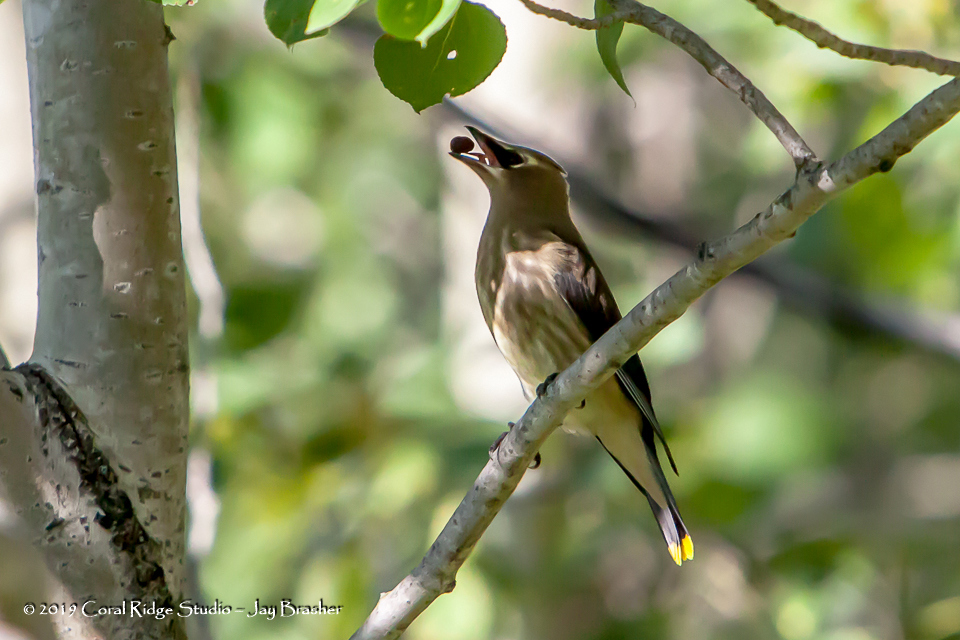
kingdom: Animalia
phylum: Chordata
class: Aves
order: Passeriformes
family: Bombycillidae
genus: Bombycilla
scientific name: Bombycilla cedrorum
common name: Cedar waxwing
